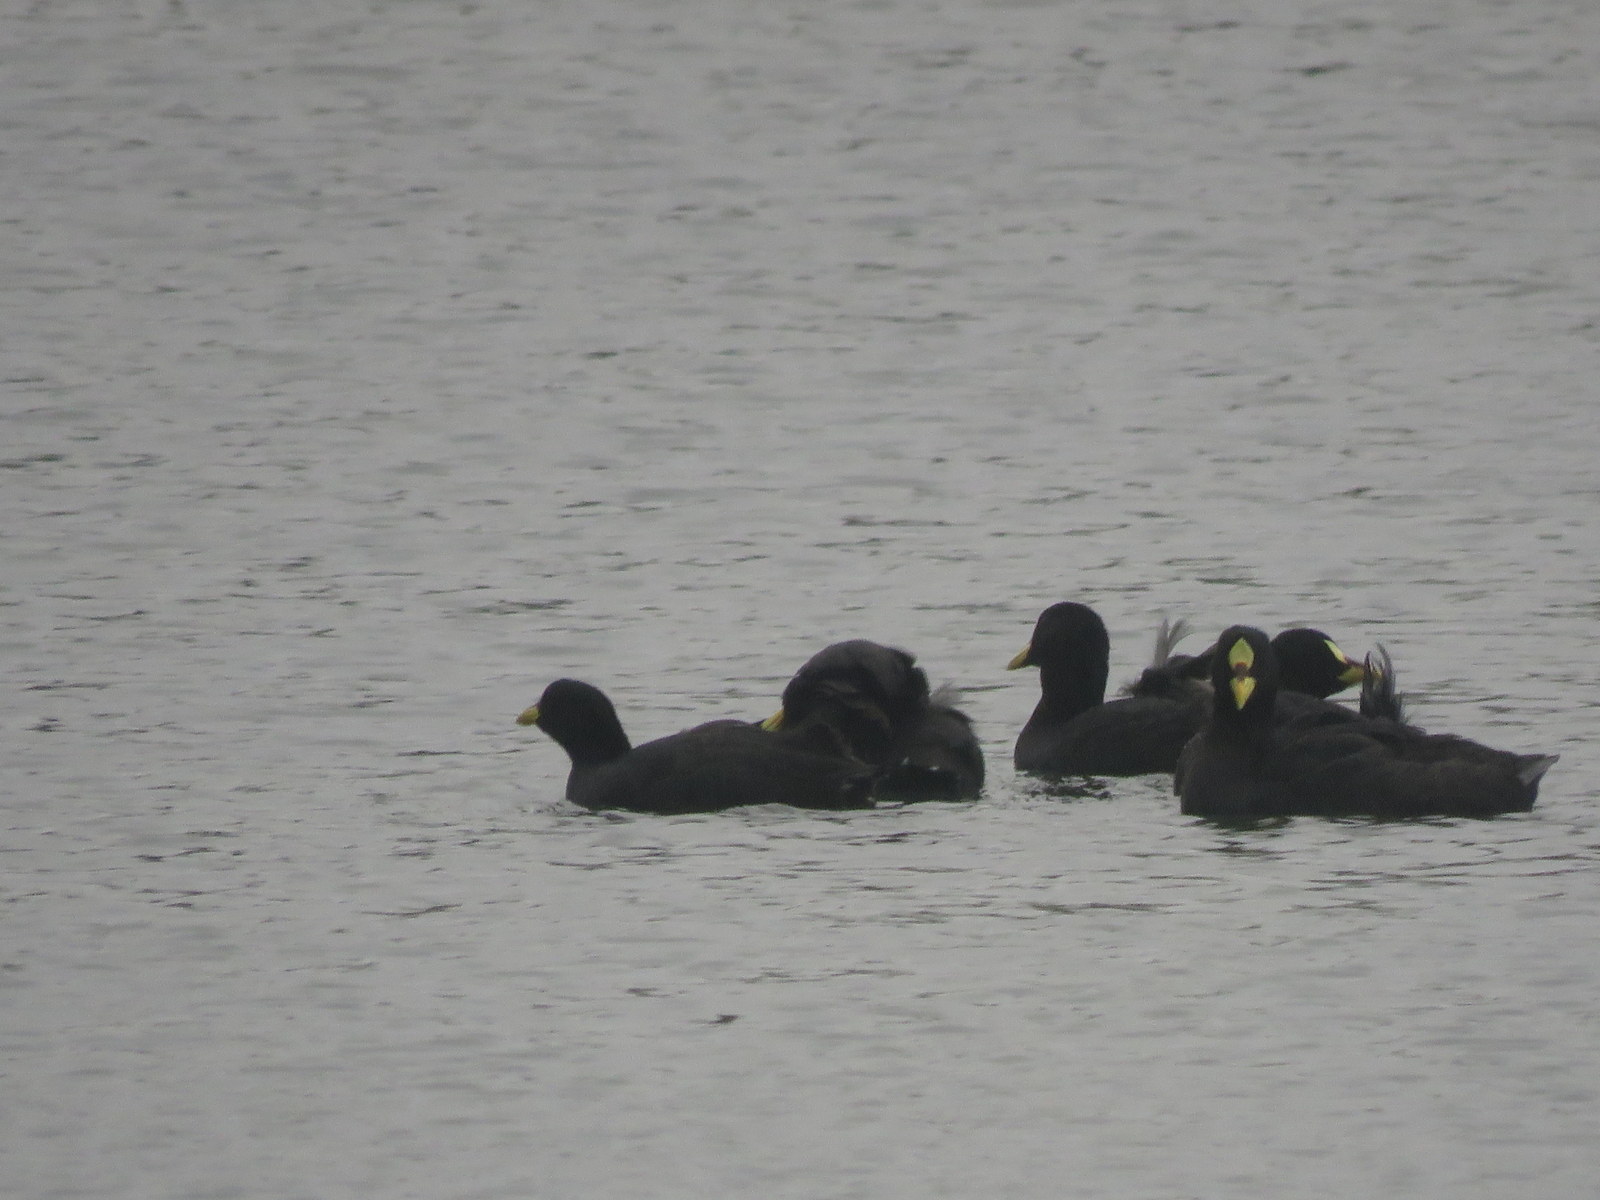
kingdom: Animalia
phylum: Chordata
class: Aves
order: Gruiformes
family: Rallidae
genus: Fulica
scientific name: Fulica armillata
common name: Red-gartered coot
